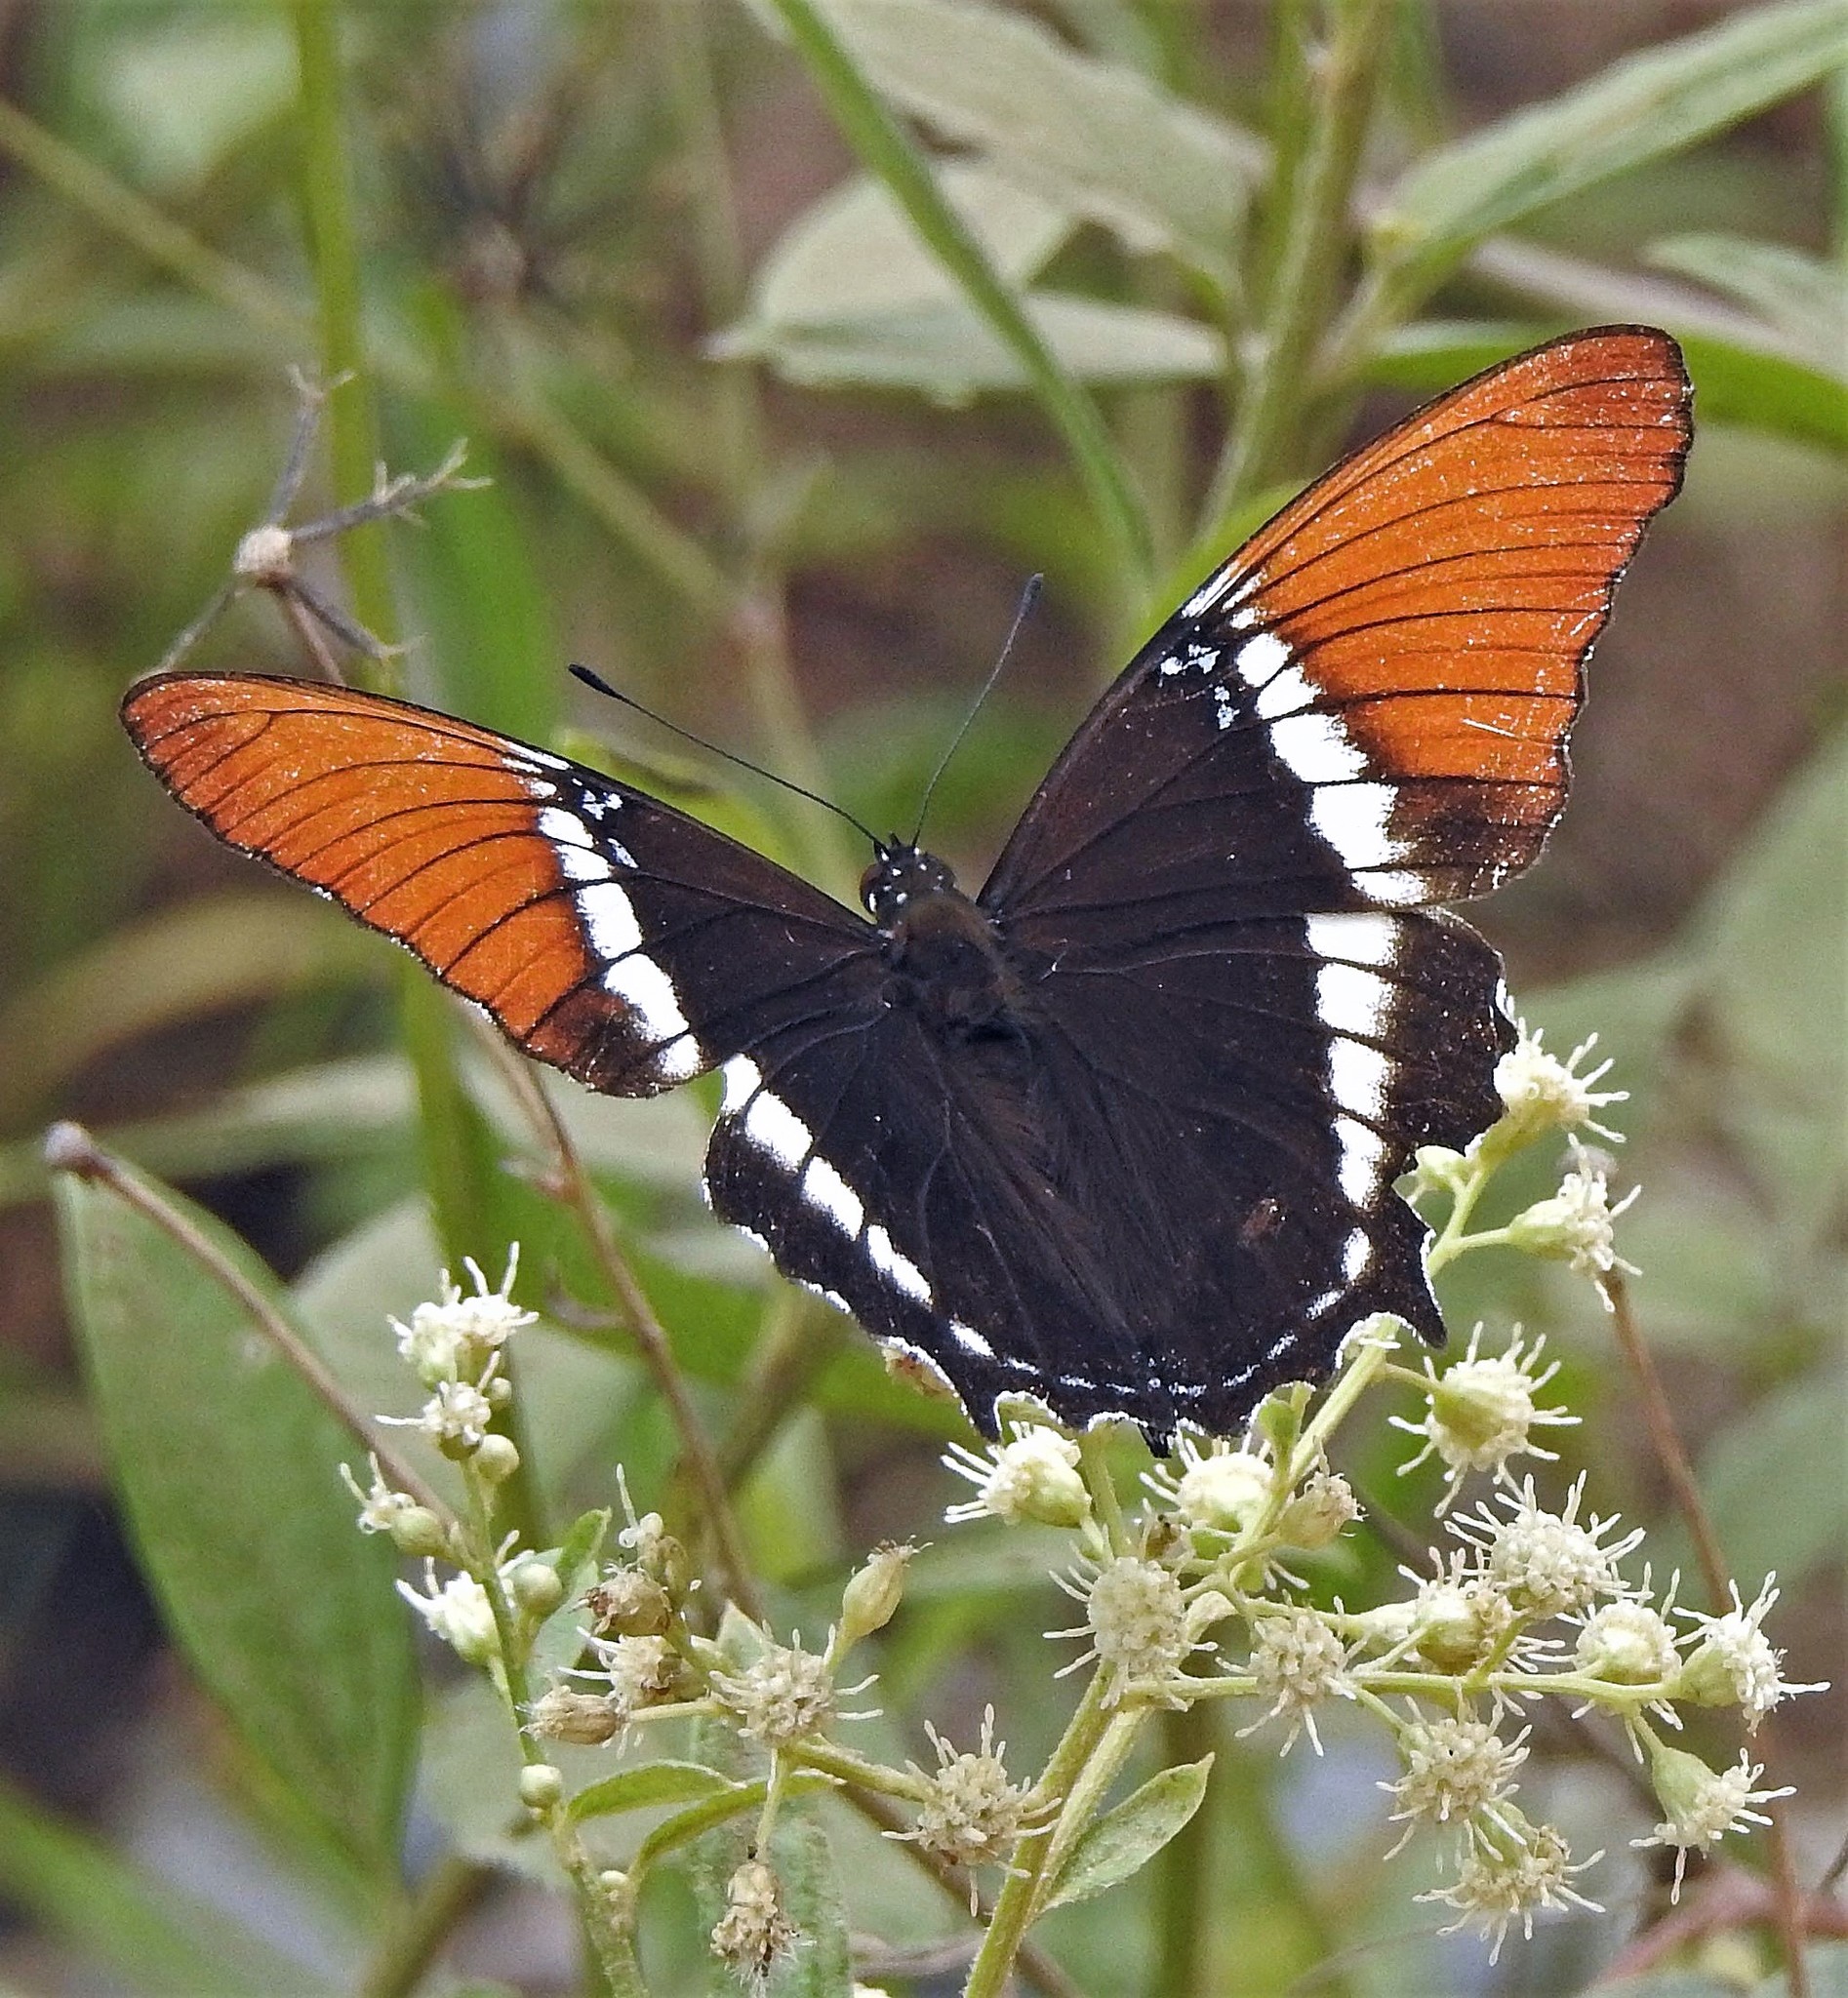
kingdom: Animalia
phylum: Arthropoda
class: Insecta
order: Lepidoptera
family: Nymphalidae
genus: Siproeta
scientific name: Siproeta epaphus
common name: Rusty-tipped page
